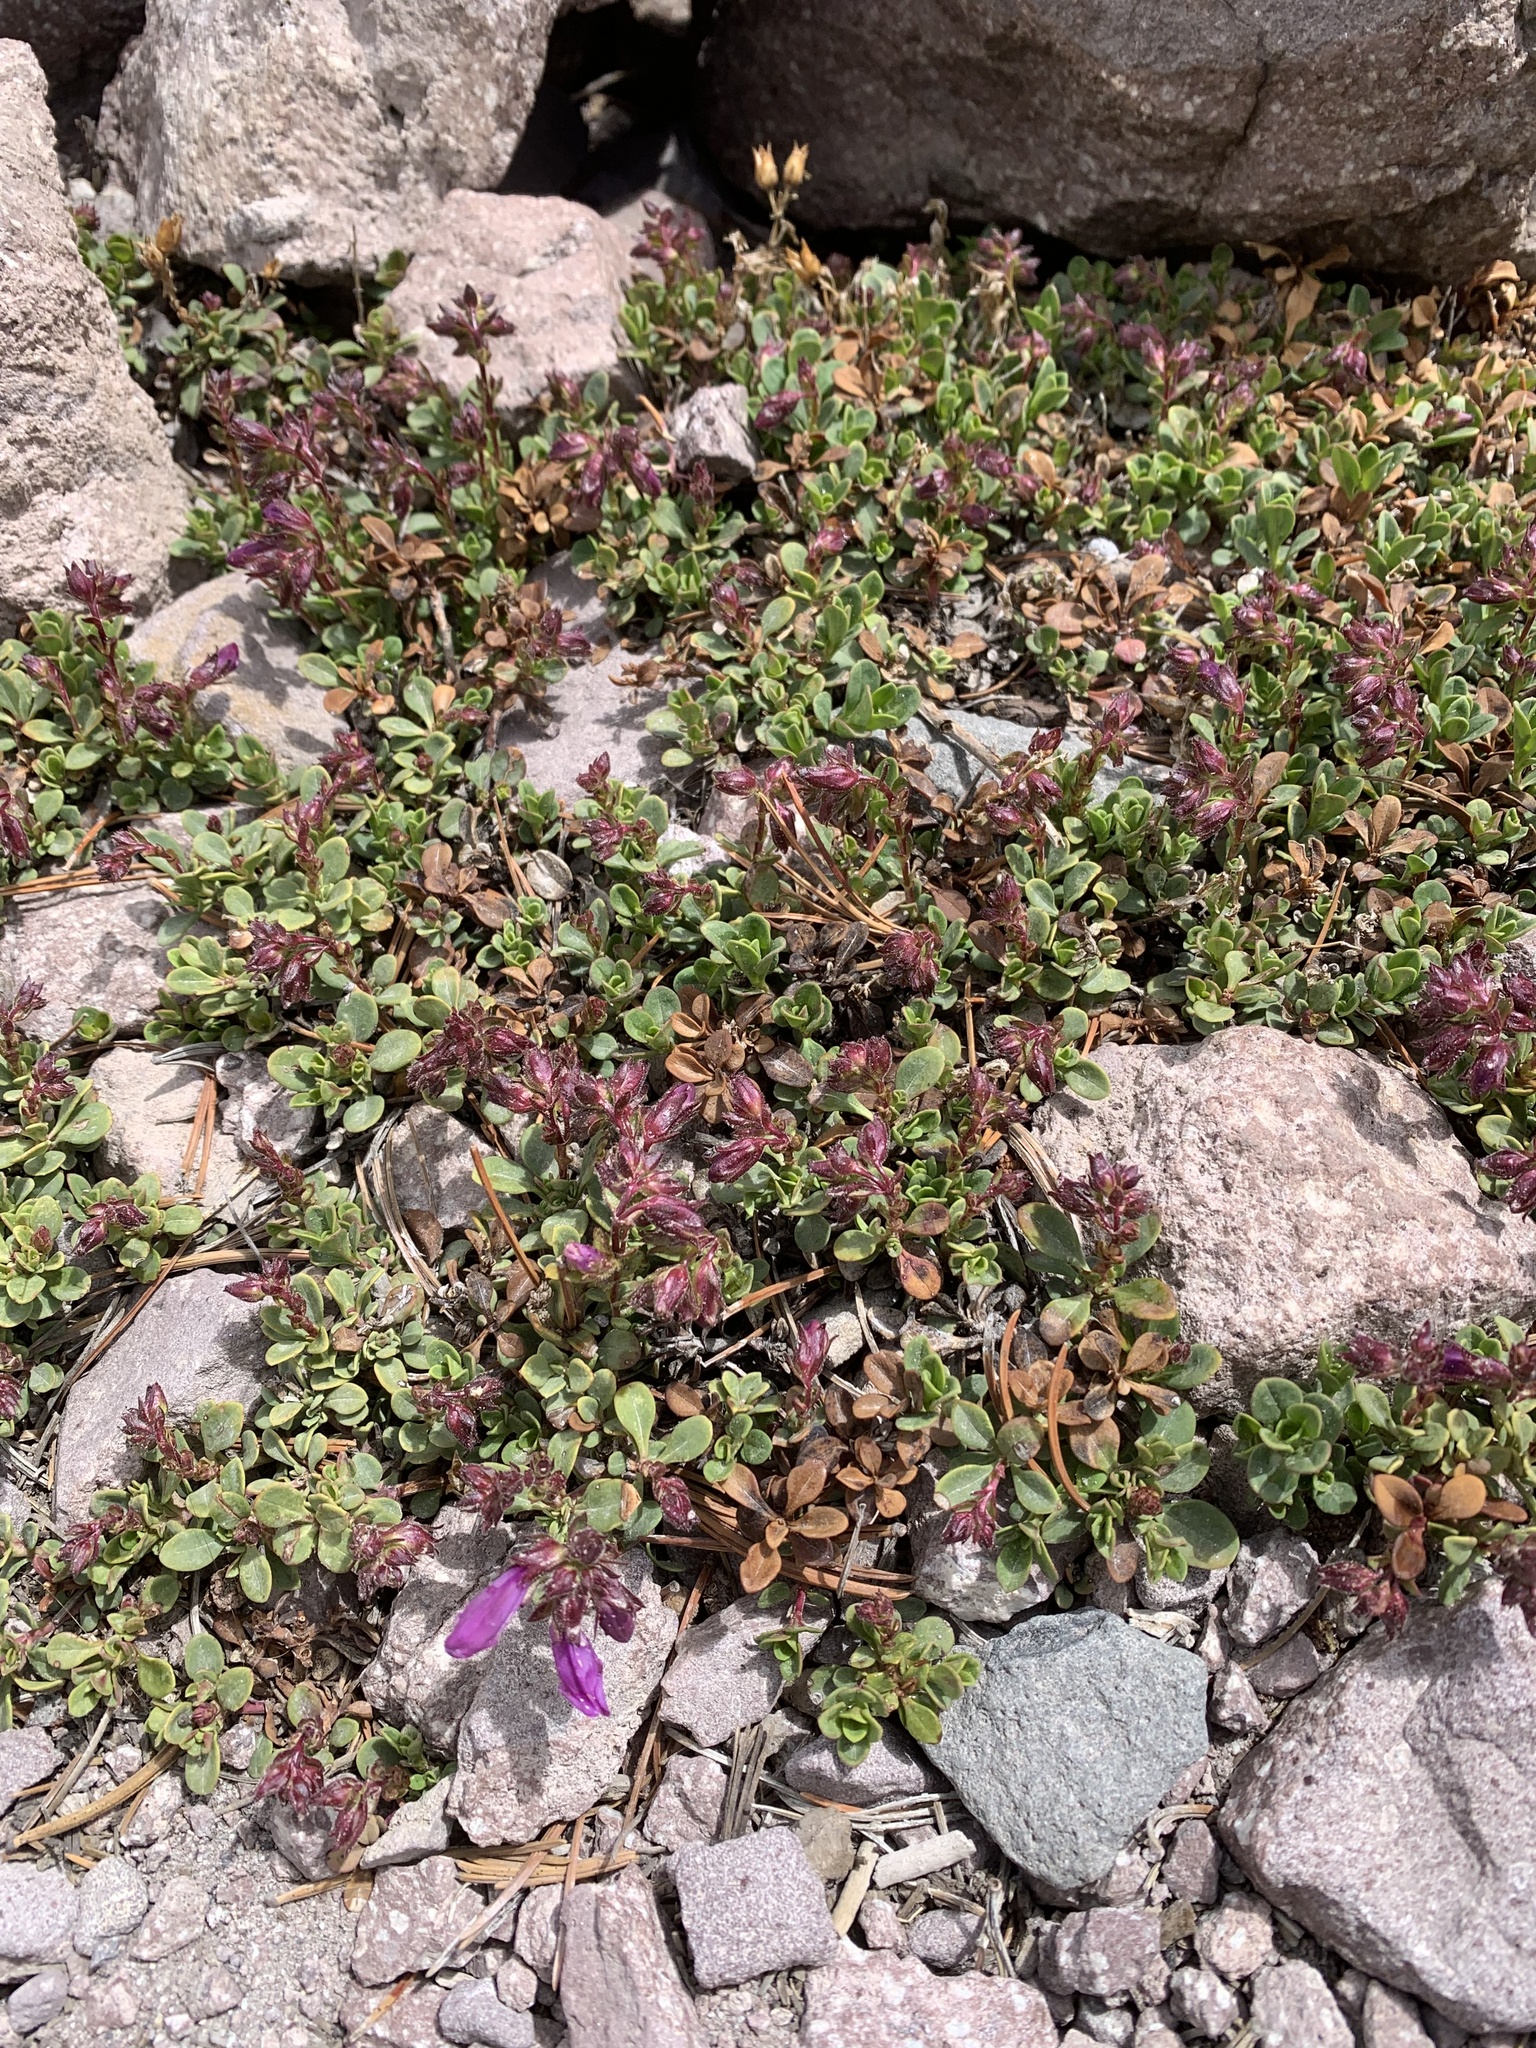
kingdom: Plantae
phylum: Tracheophyta
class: Magnoliopsida
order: Lamiales
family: Plantaginaceae
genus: Penstemon
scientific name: Penstemon newberryi
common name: Mountain-pride
